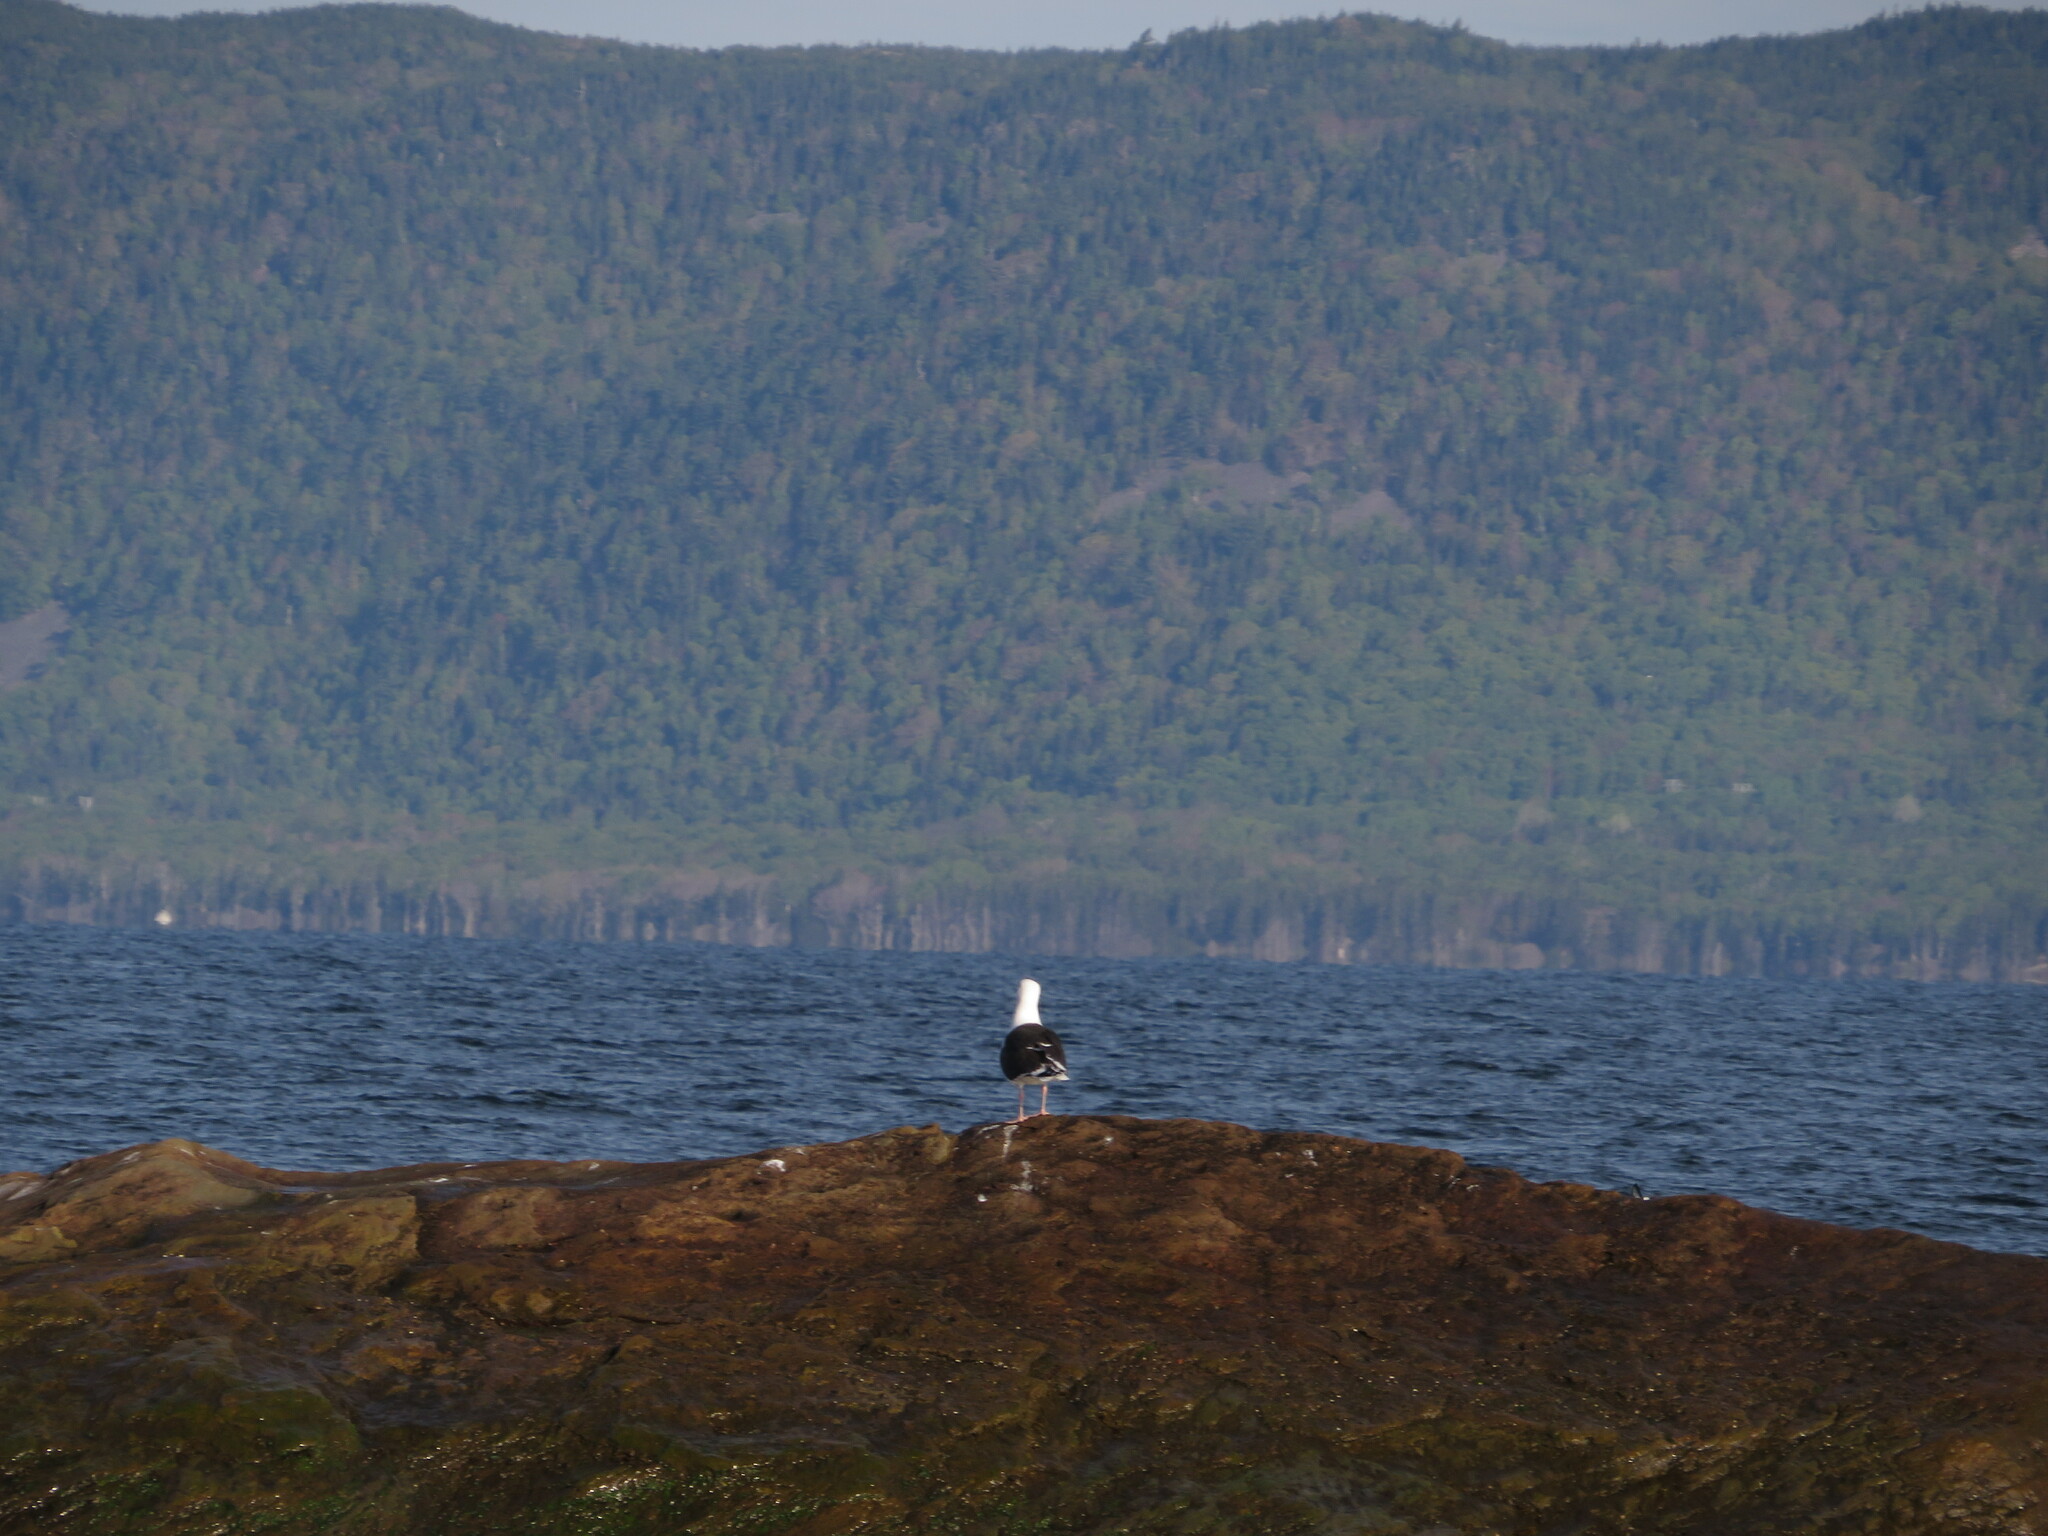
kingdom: Animalia
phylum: Chordata
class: Aves
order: Charadriiformes
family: Laridae
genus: Larus
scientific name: Larus marinus
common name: Great black-backed gull
